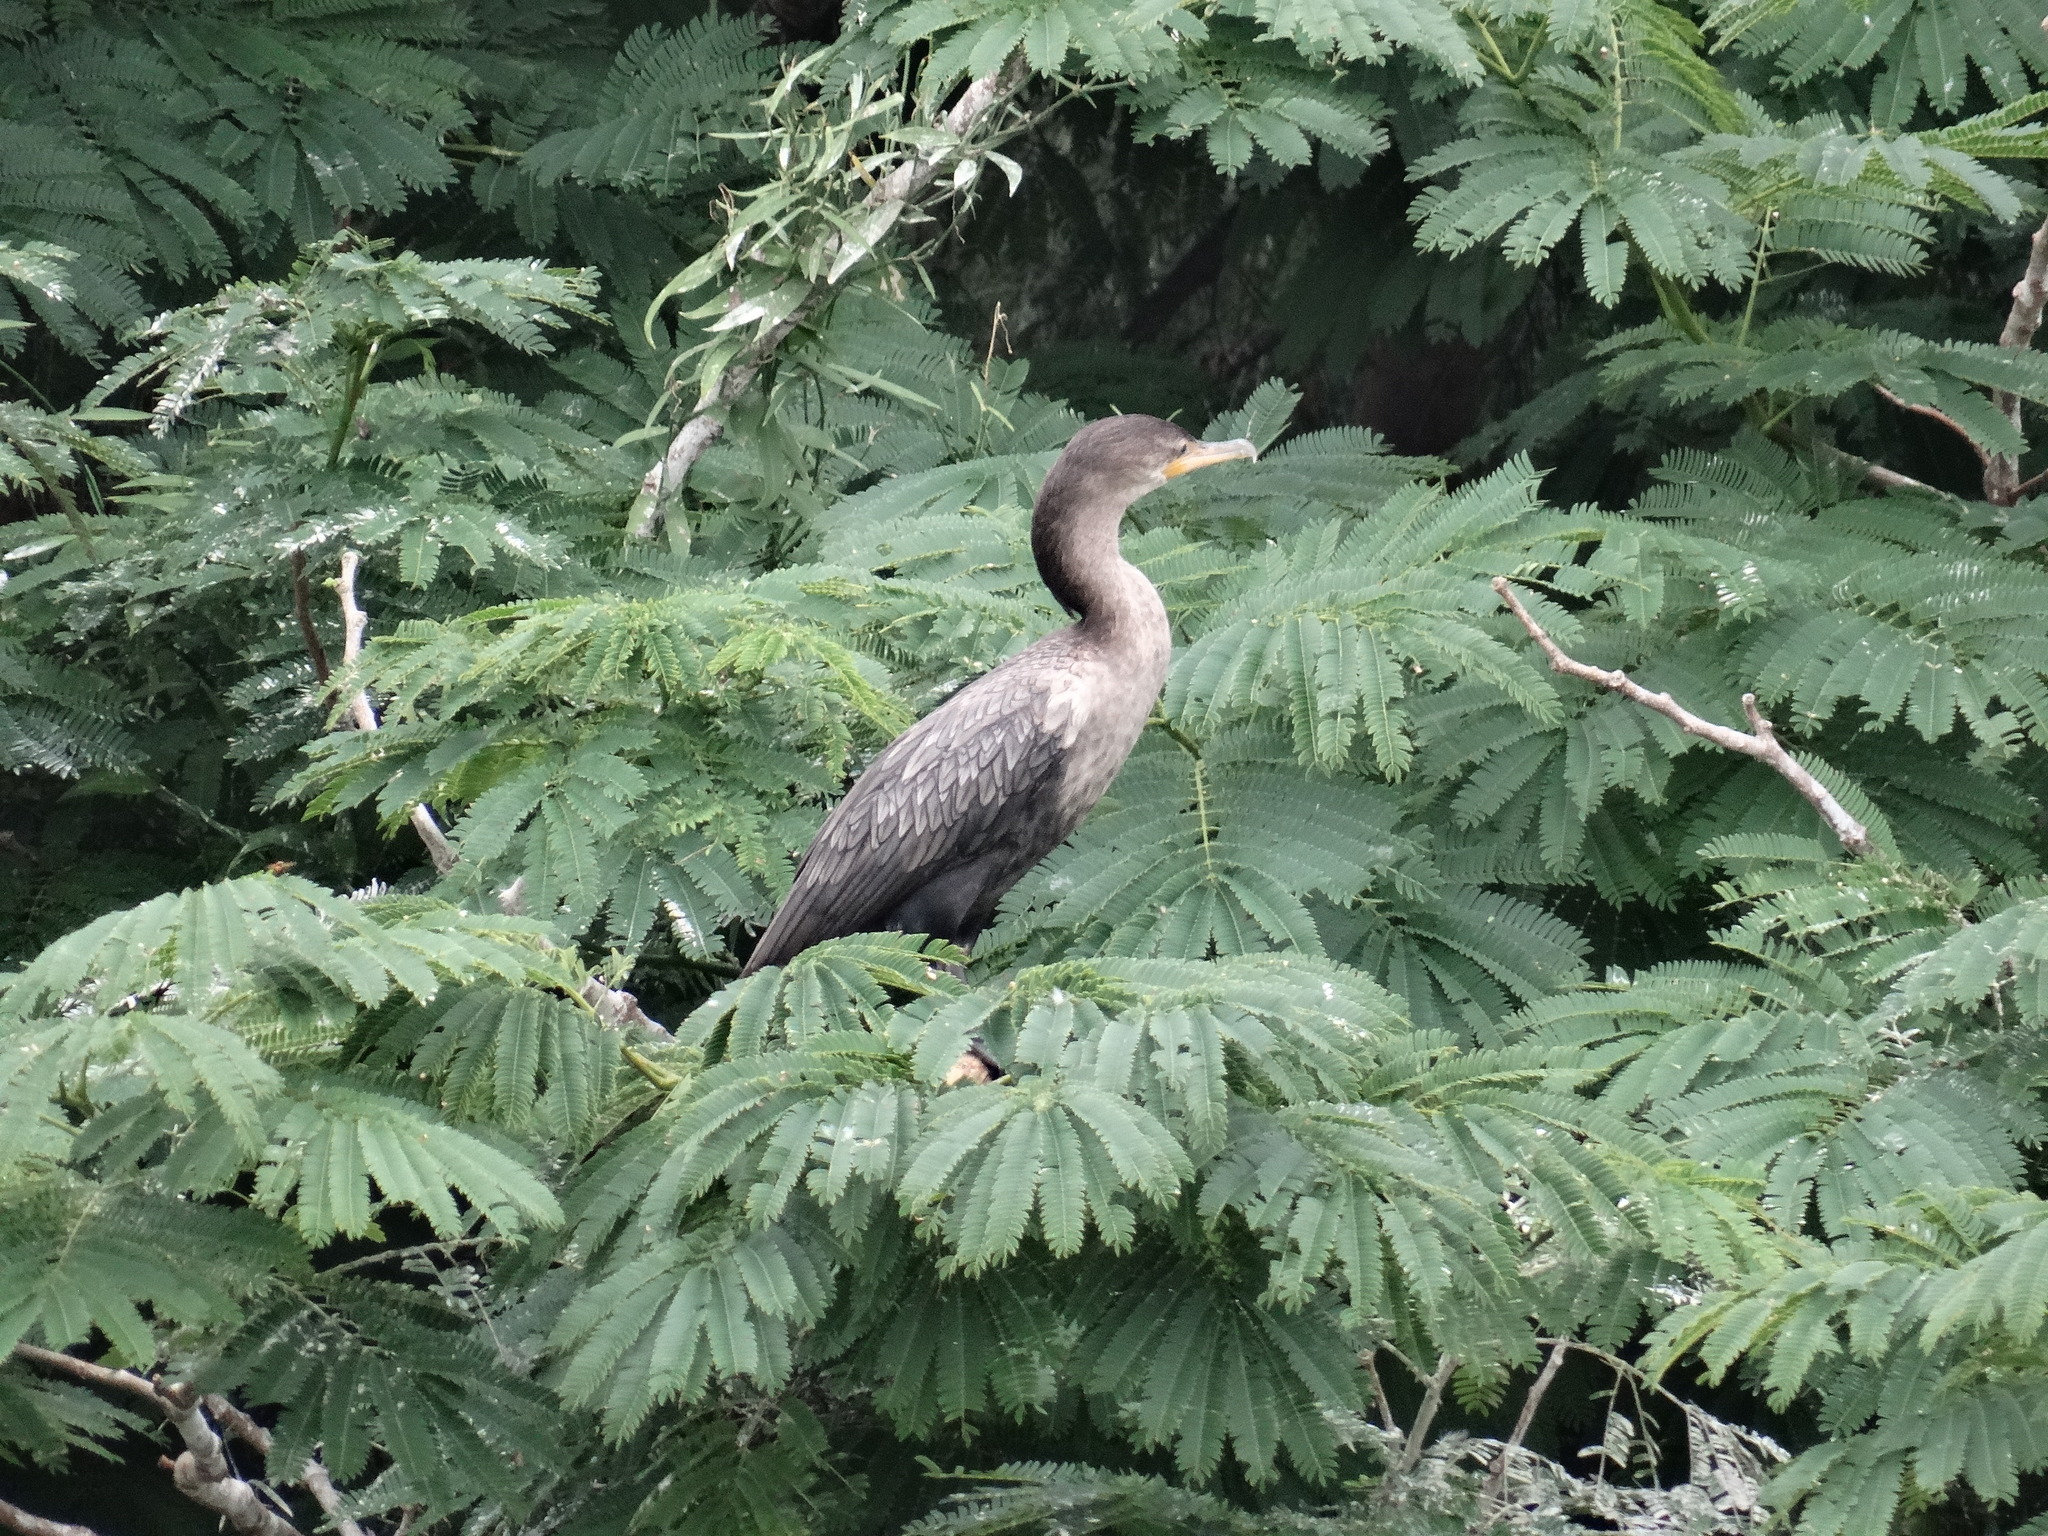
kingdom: Animalia
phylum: Chordata
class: Aves
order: Suliformes
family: Phalacrocoracidae
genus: Phalacrocorax
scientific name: Phalacrocorax brasilianus
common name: Neotropic cormorant
